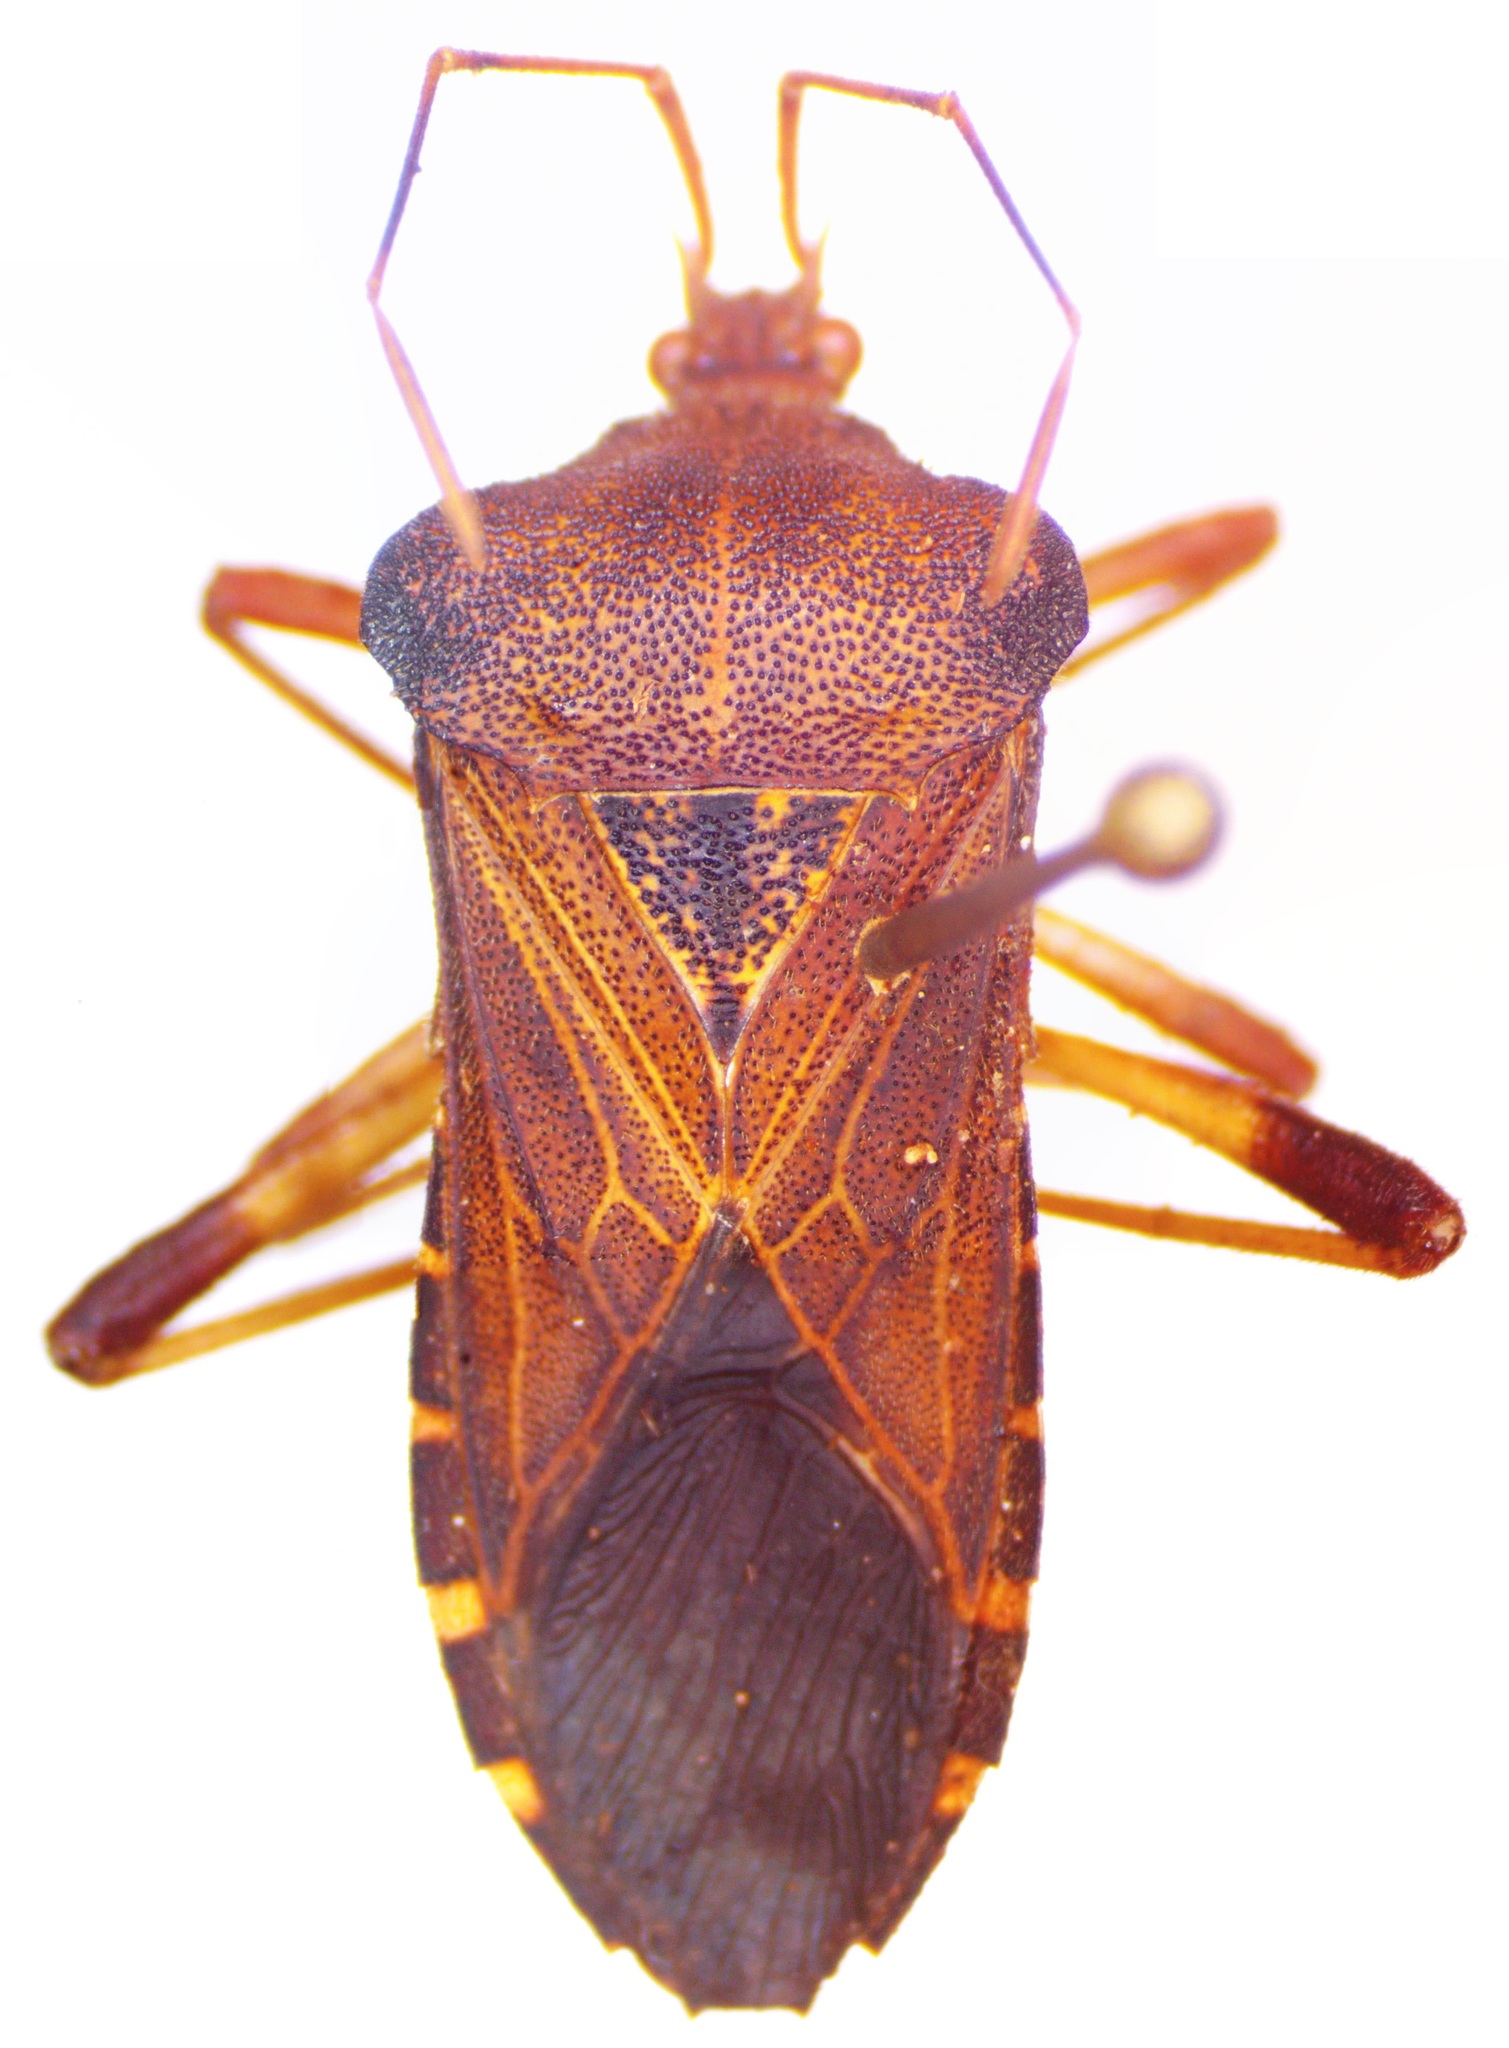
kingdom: Animalia
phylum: Arthropoda
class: Insecta
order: Hemiptera
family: Coreidae
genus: Anasa
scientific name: Anasa scorbutica
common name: Squash bug
